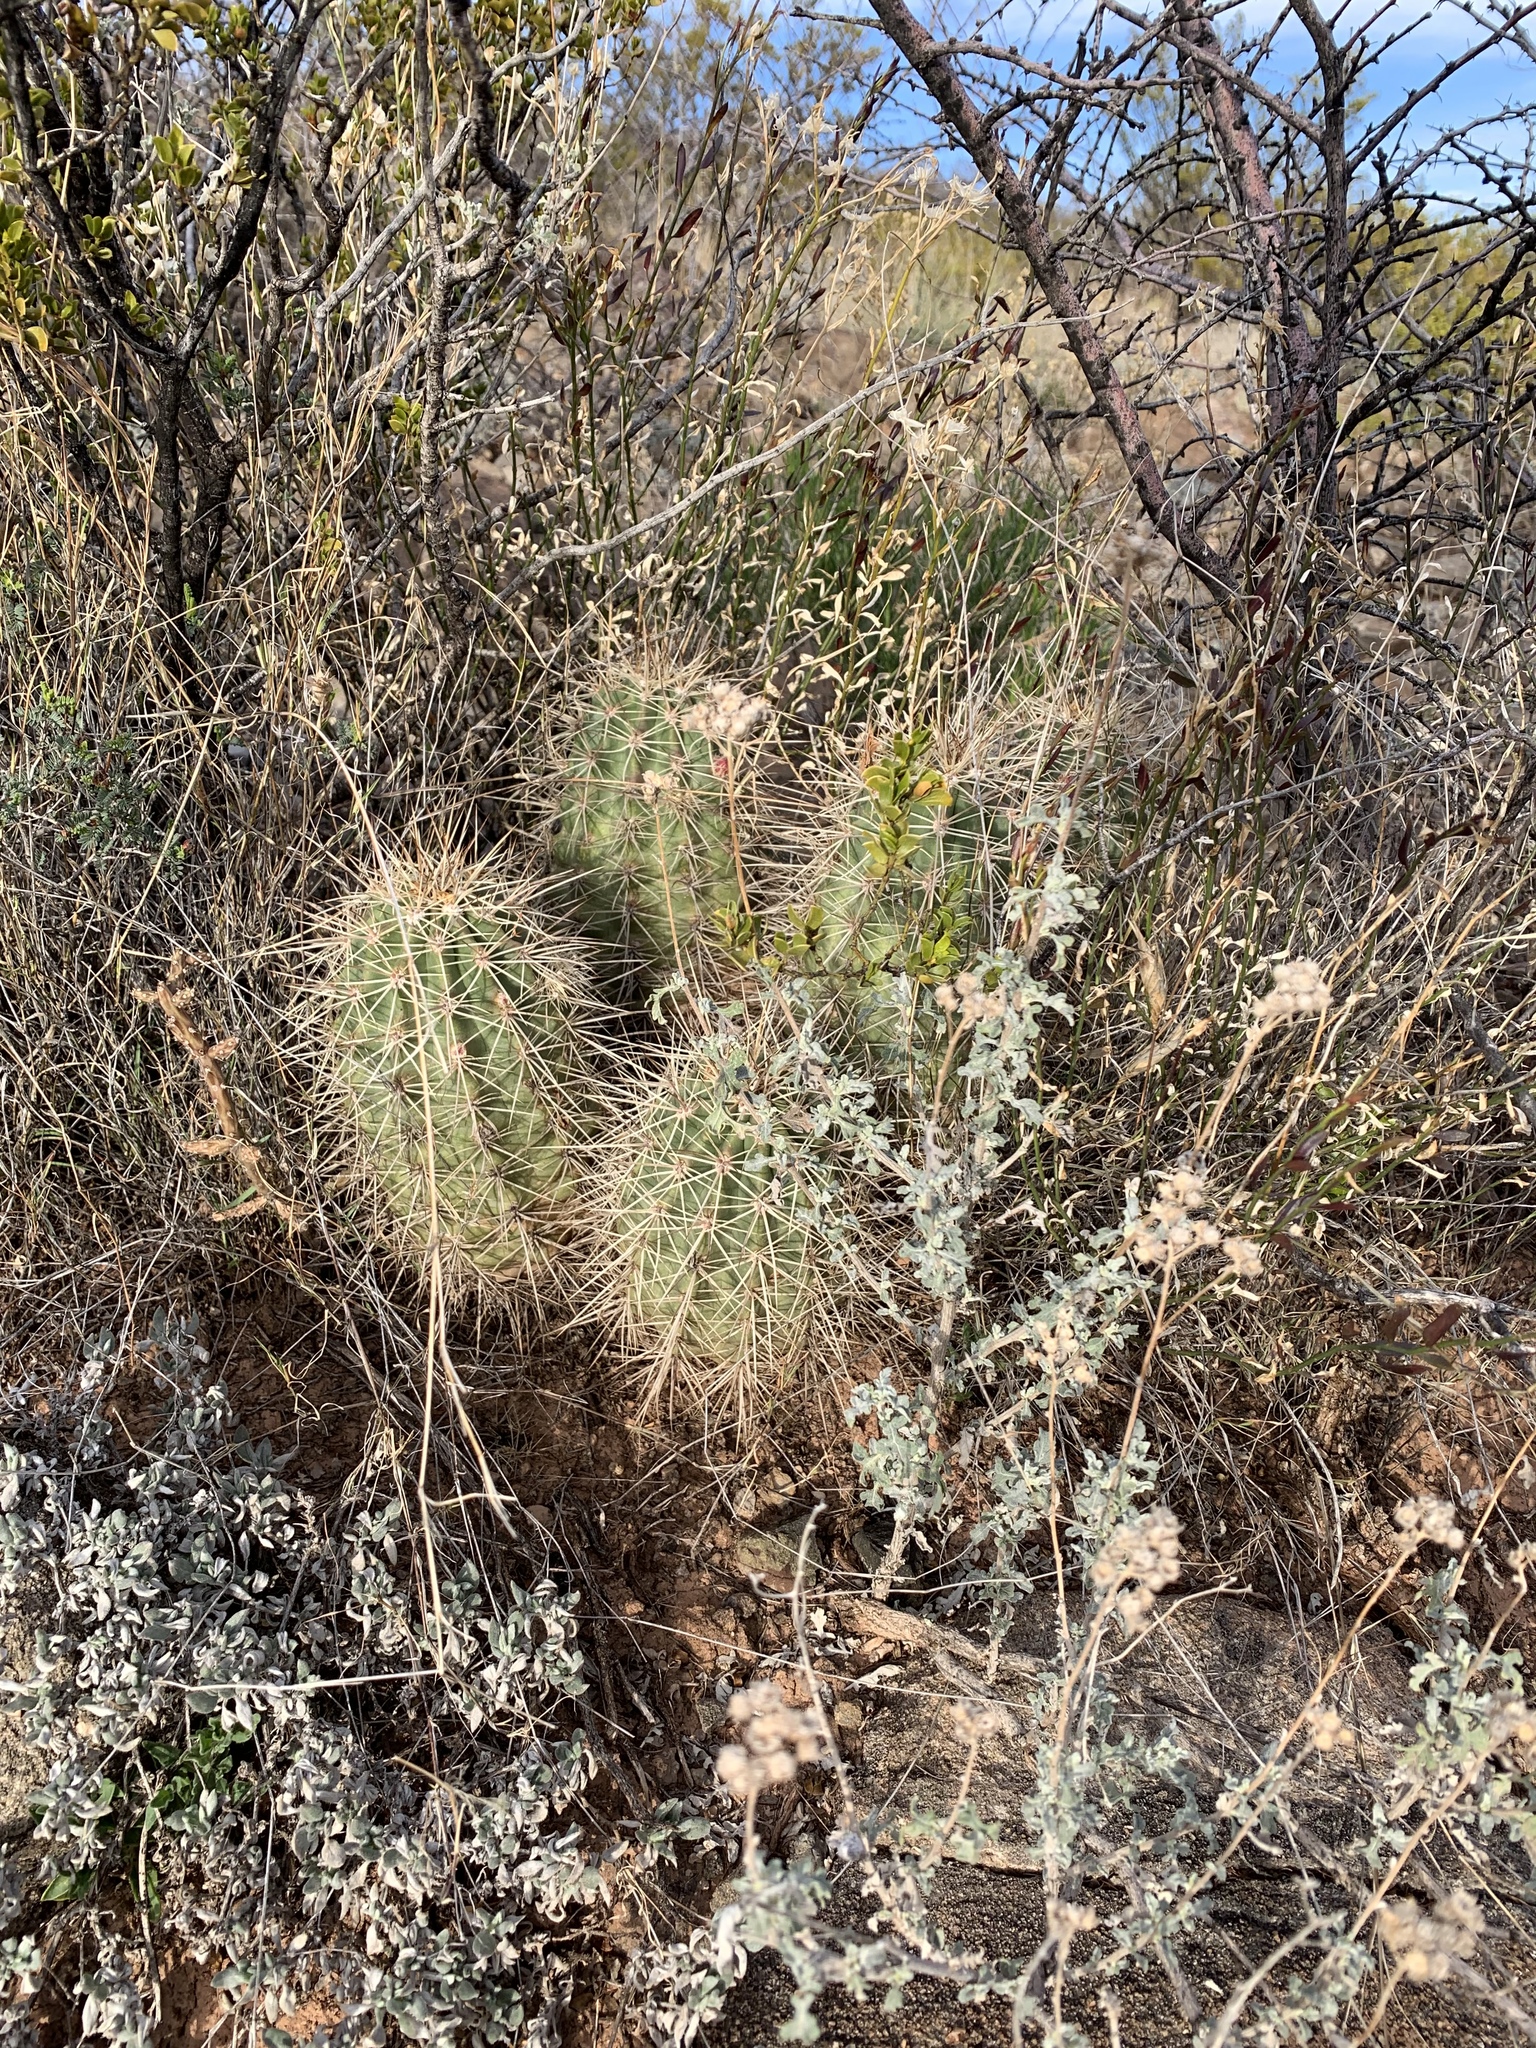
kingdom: Plantae
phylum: Tracheophyta
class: Magnoliopsida
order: Caryophyllales
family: Cactaceae
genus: Echinocereus
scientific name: Echinocereus coccineus
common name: Scarlet hedgehog cactus
